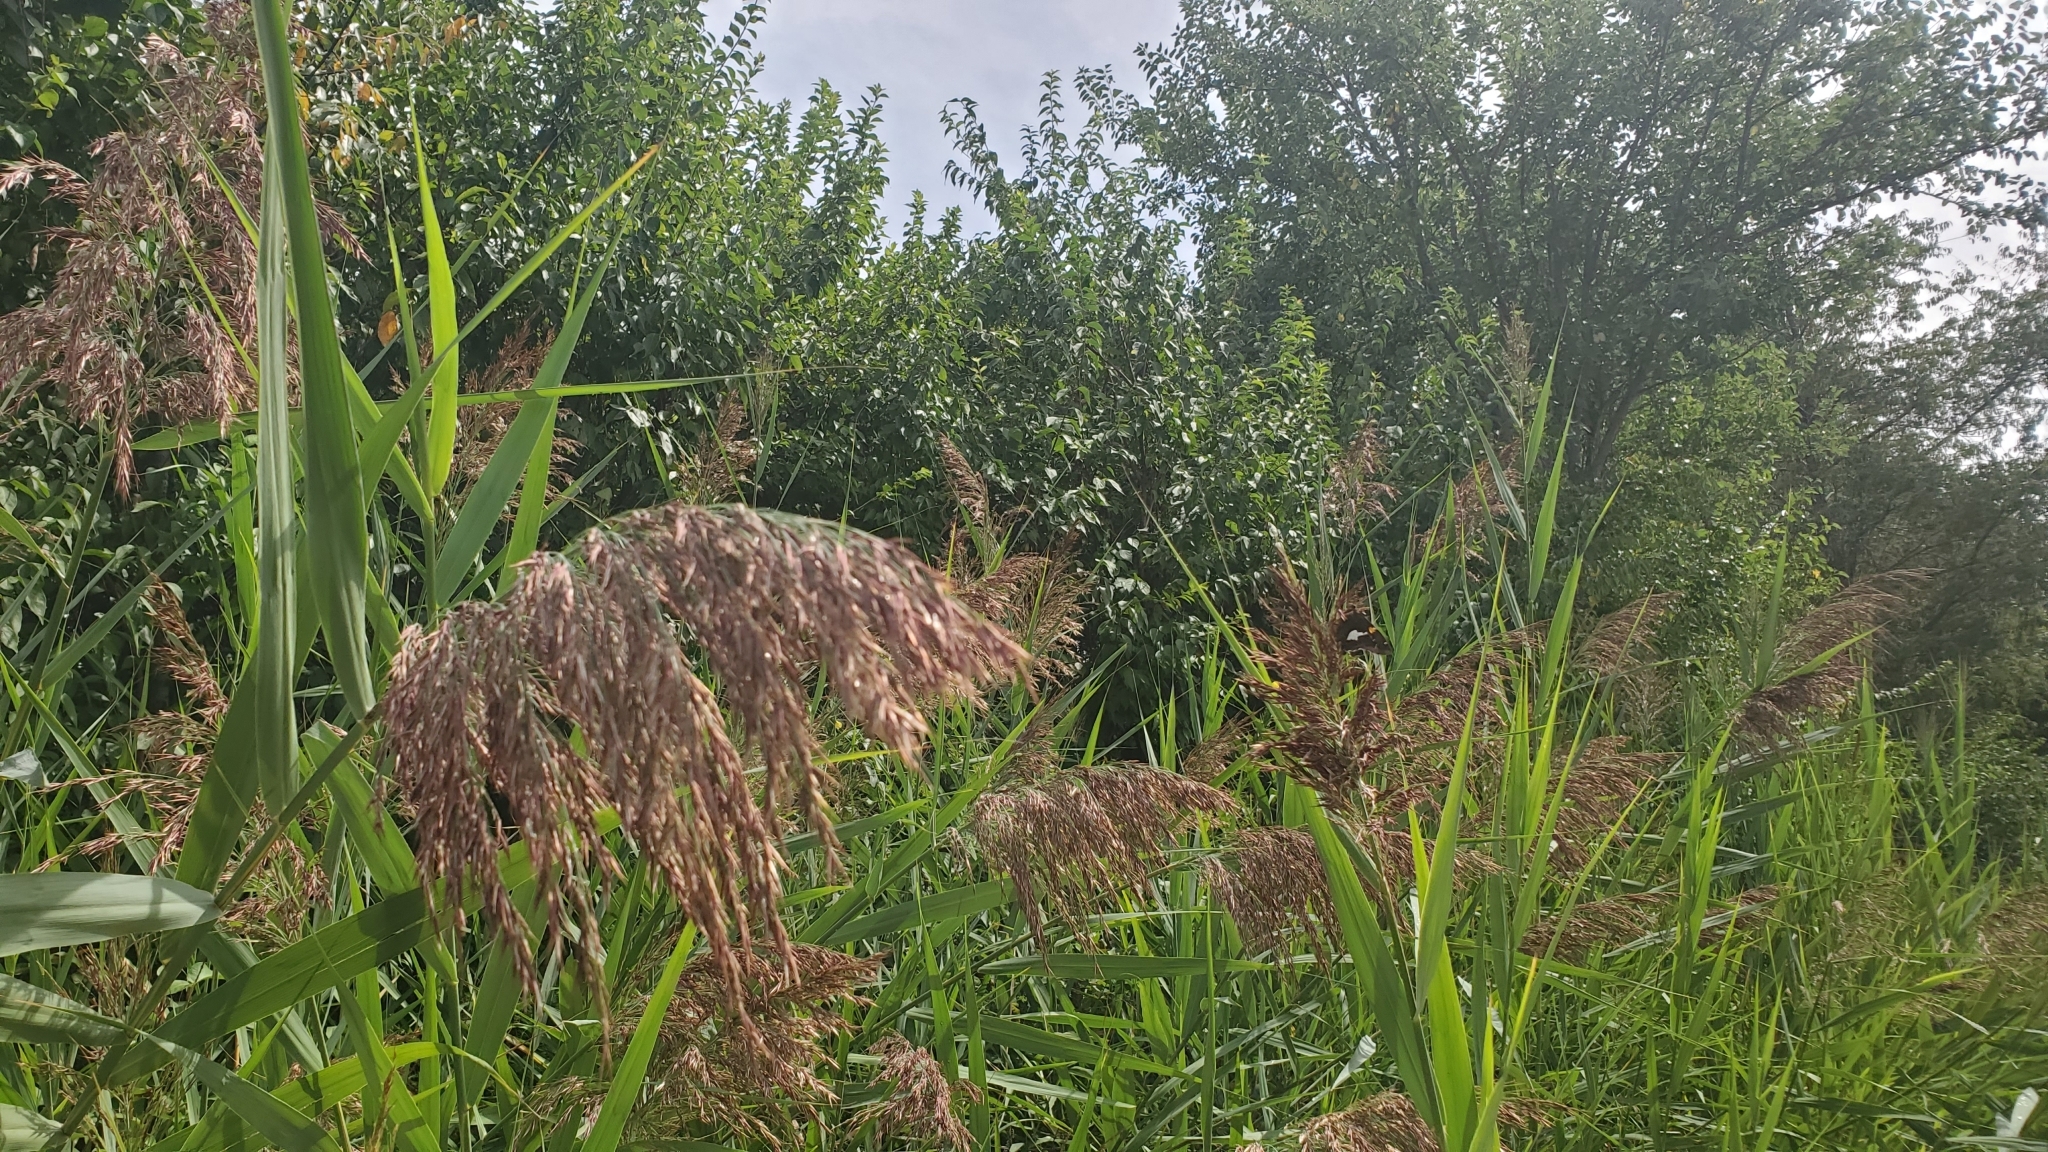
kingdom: Plantae
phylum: Tracheophyta
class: Liliopsida
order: Poales
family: Poaceae
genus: Phragmites
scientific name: Phragmites australis
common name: Common reed
